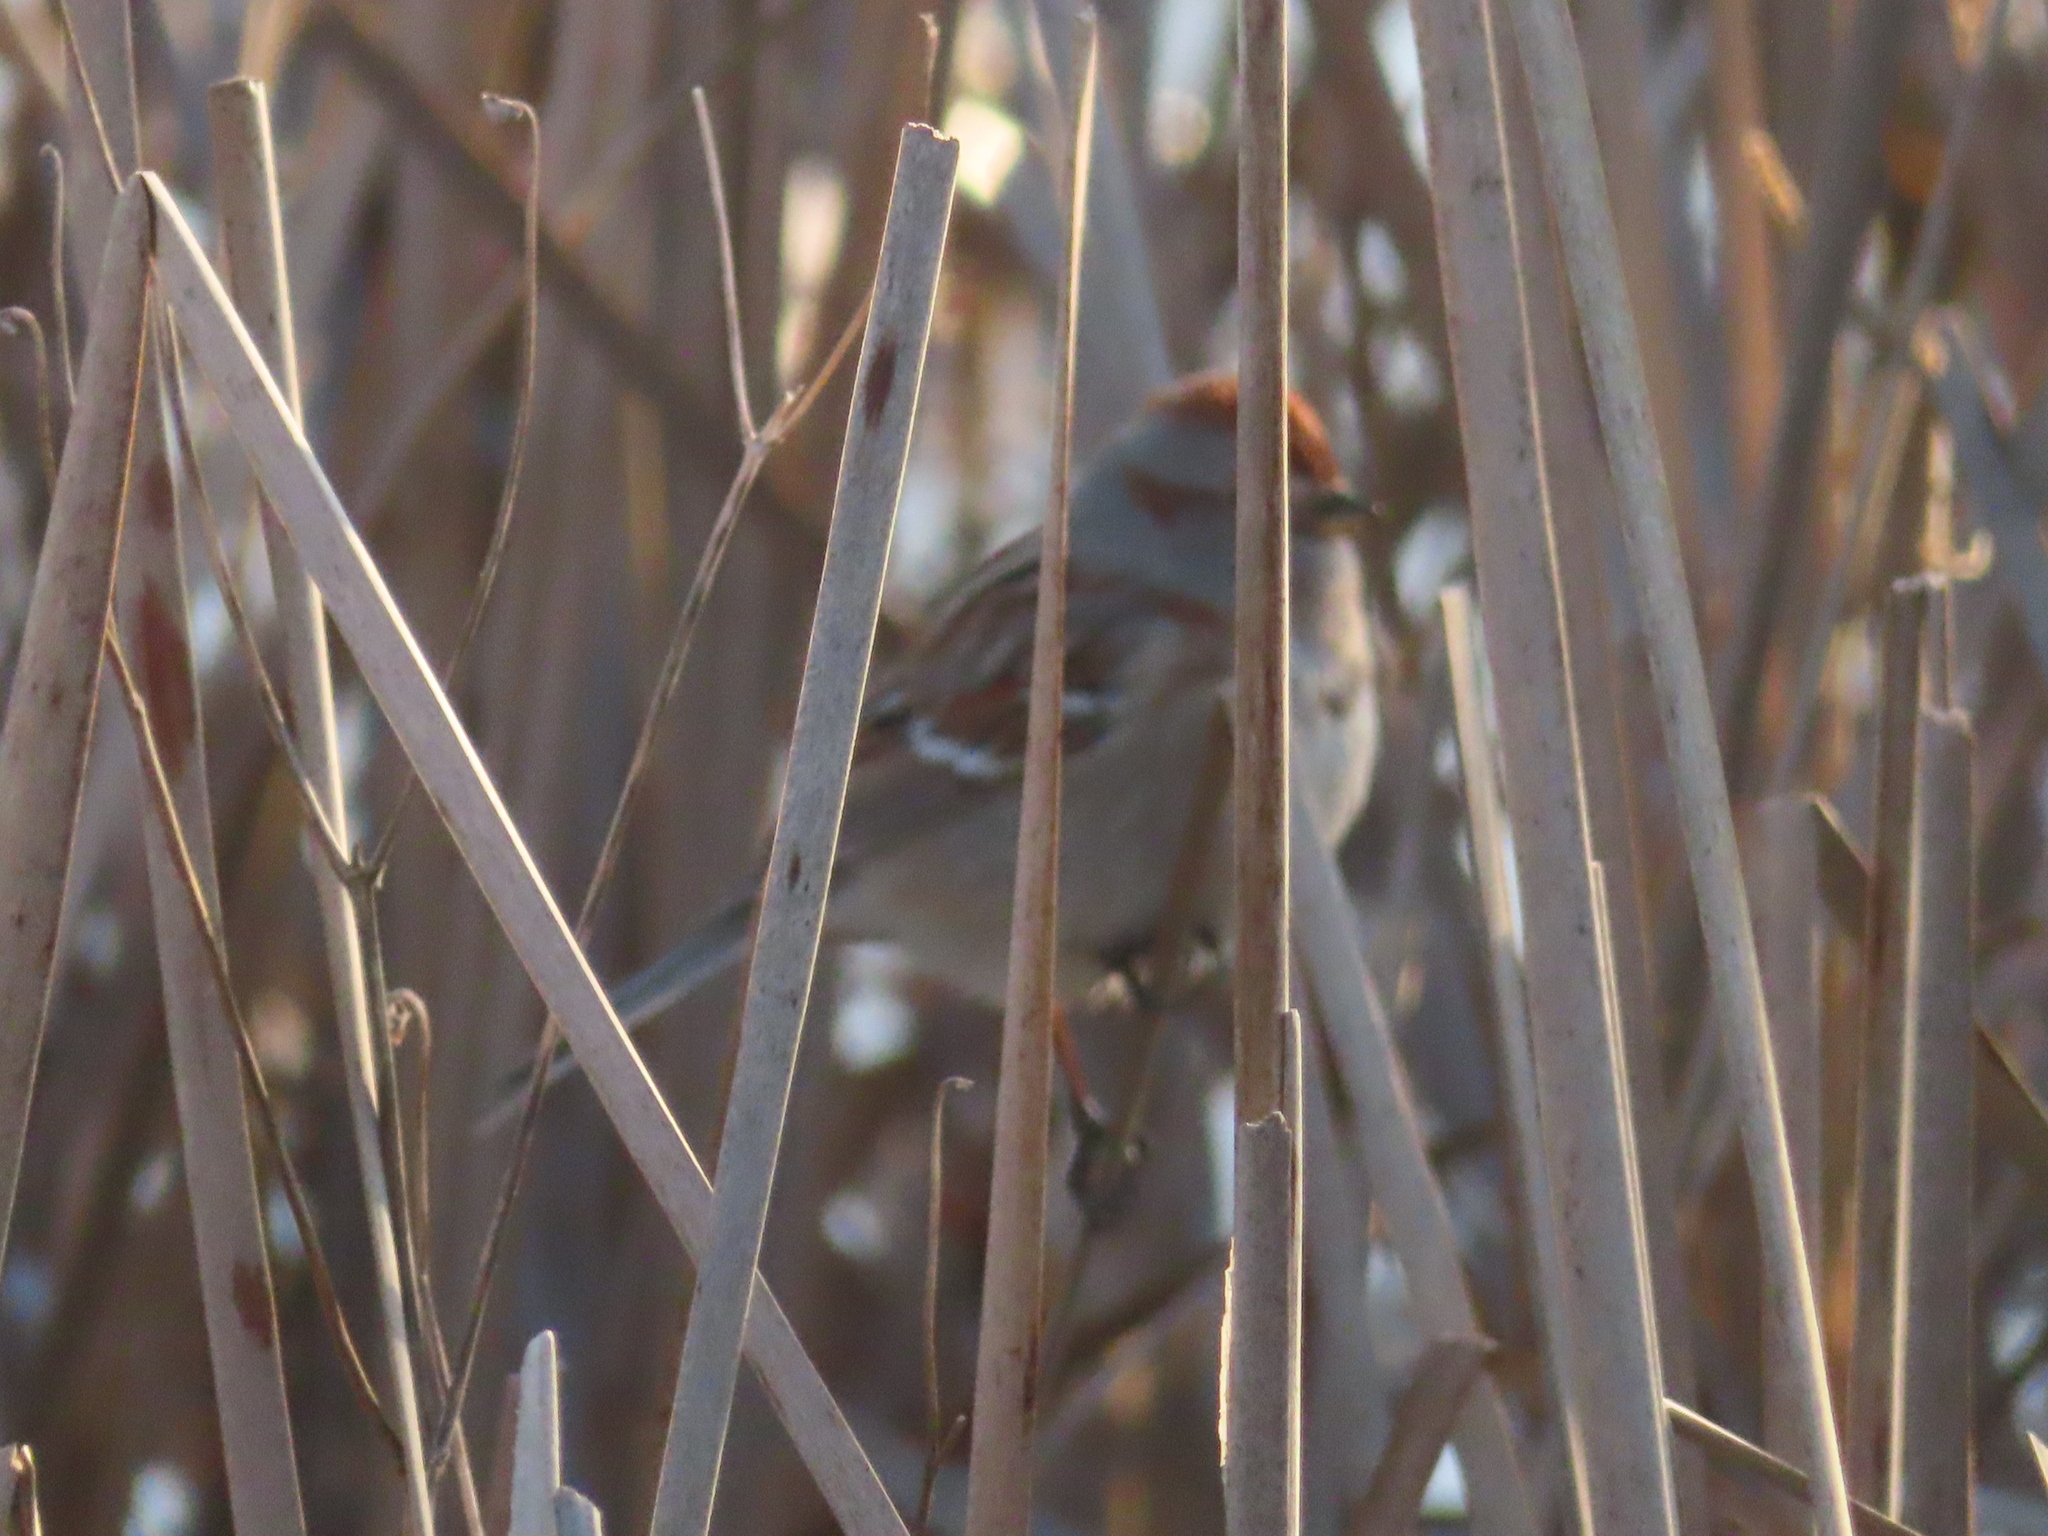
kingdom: Animalia
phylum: Chordata
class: Aves
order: Passeriformes
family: Passerellidae
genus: Spizelloides
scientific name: Spizelloides arborea
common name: American tree sparrow
